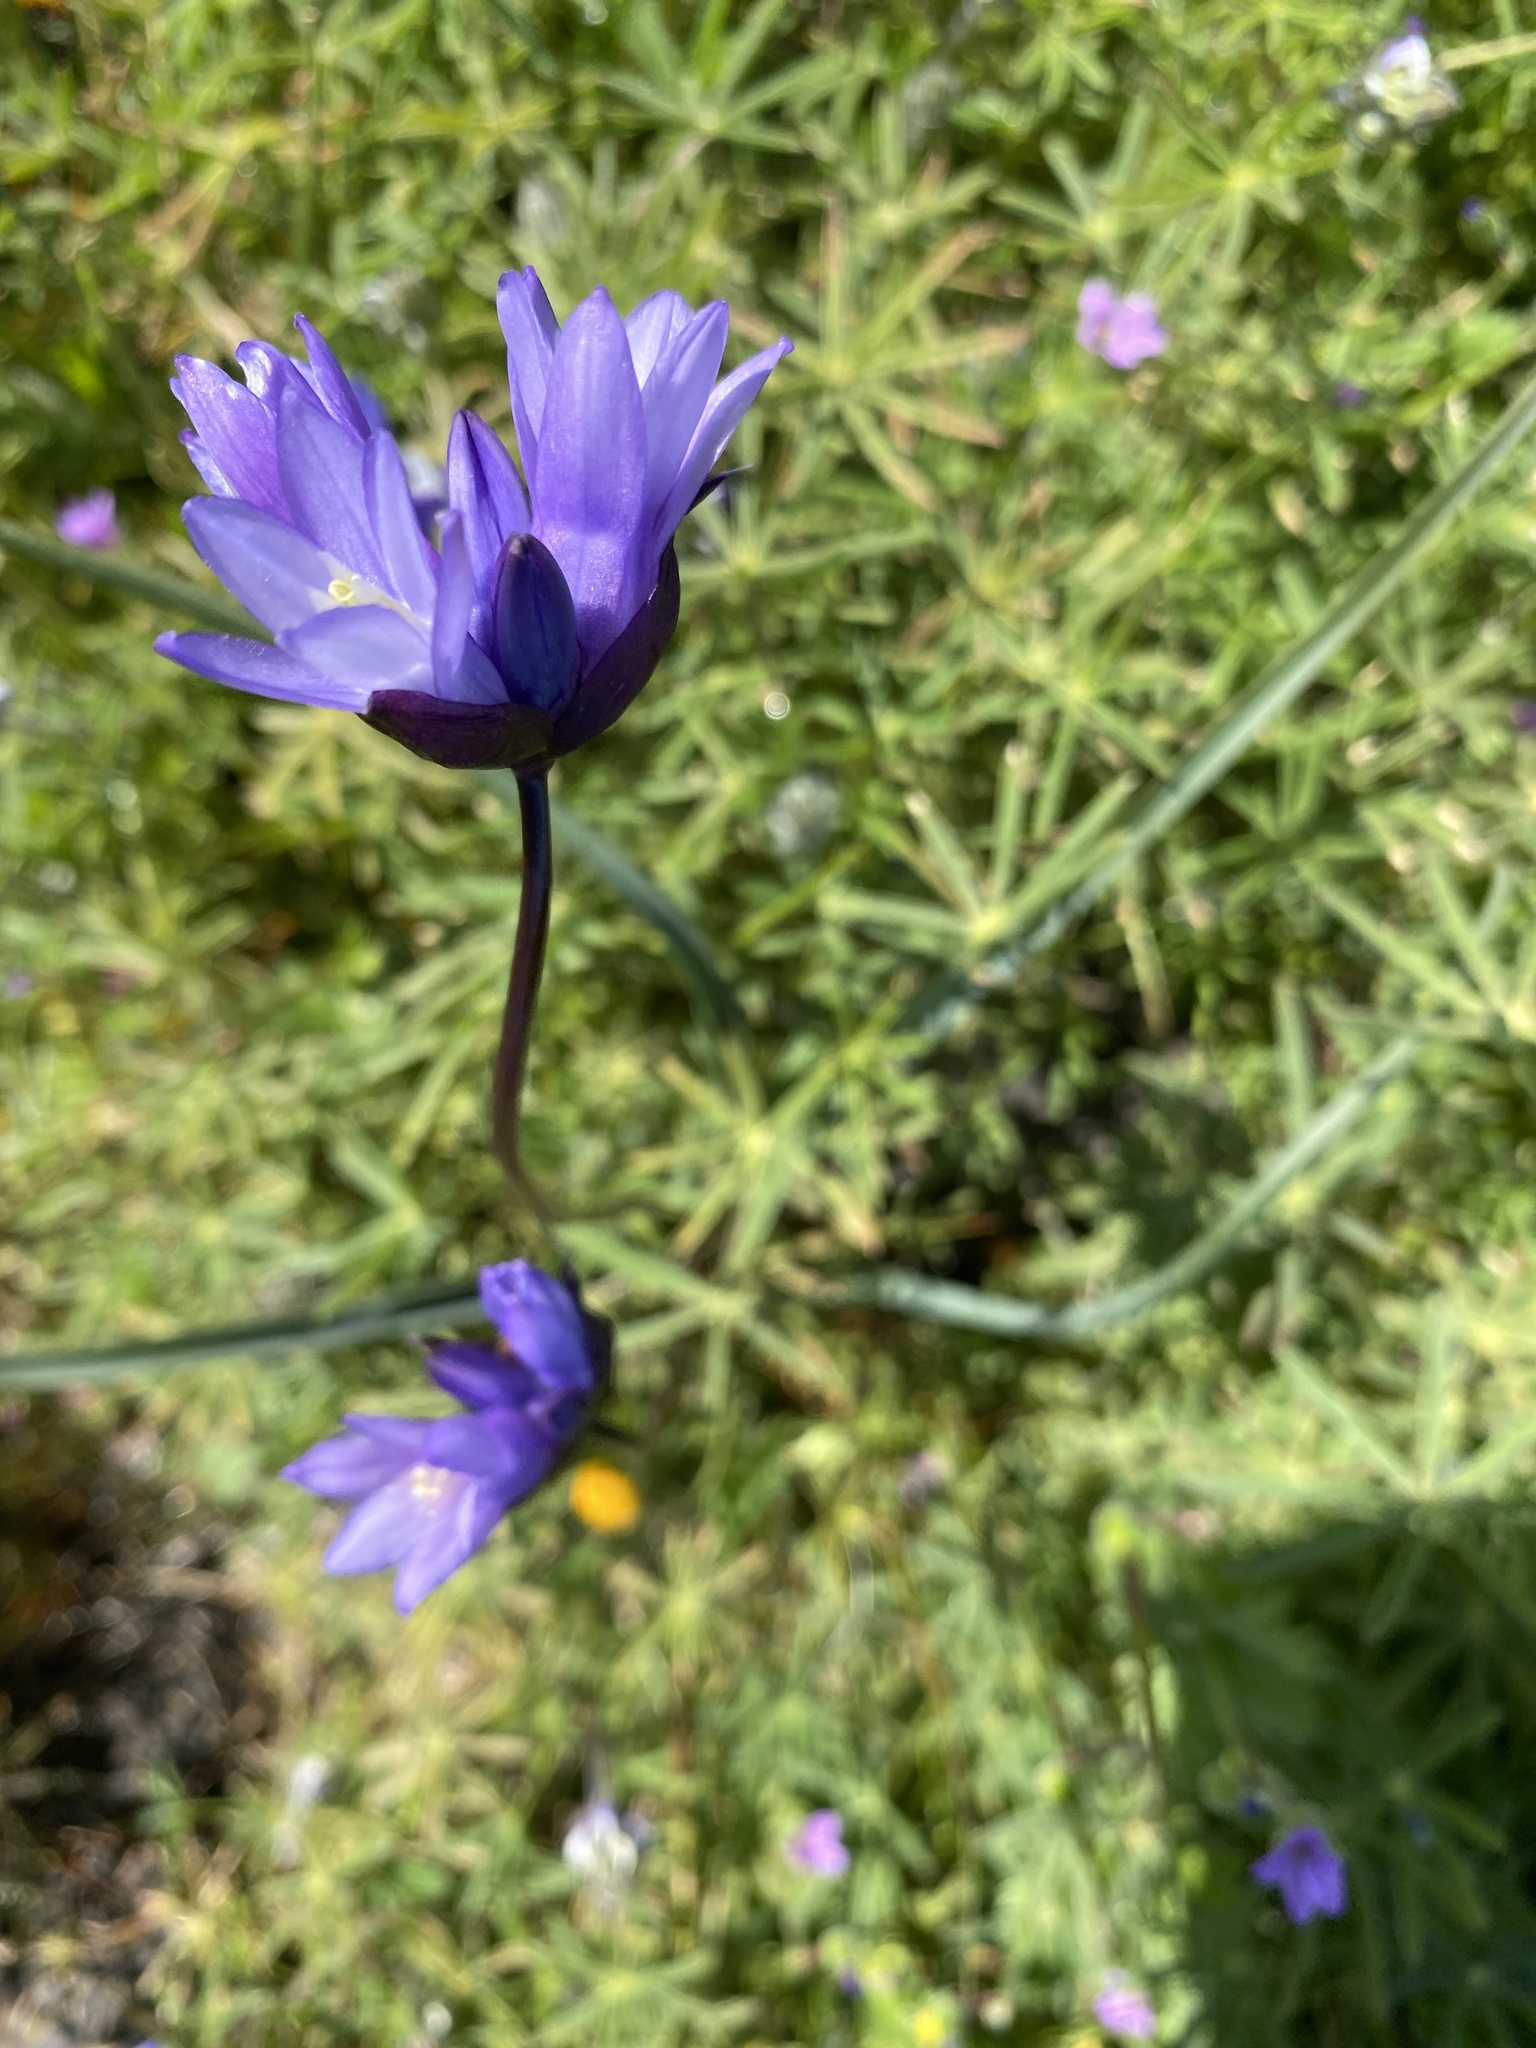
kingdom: Plantae
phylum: Tracheophyta
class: Liliopsida
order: Asparagales
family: Asparagaceae
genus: Dipterostemon
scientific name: Dipterostemon capitatus
